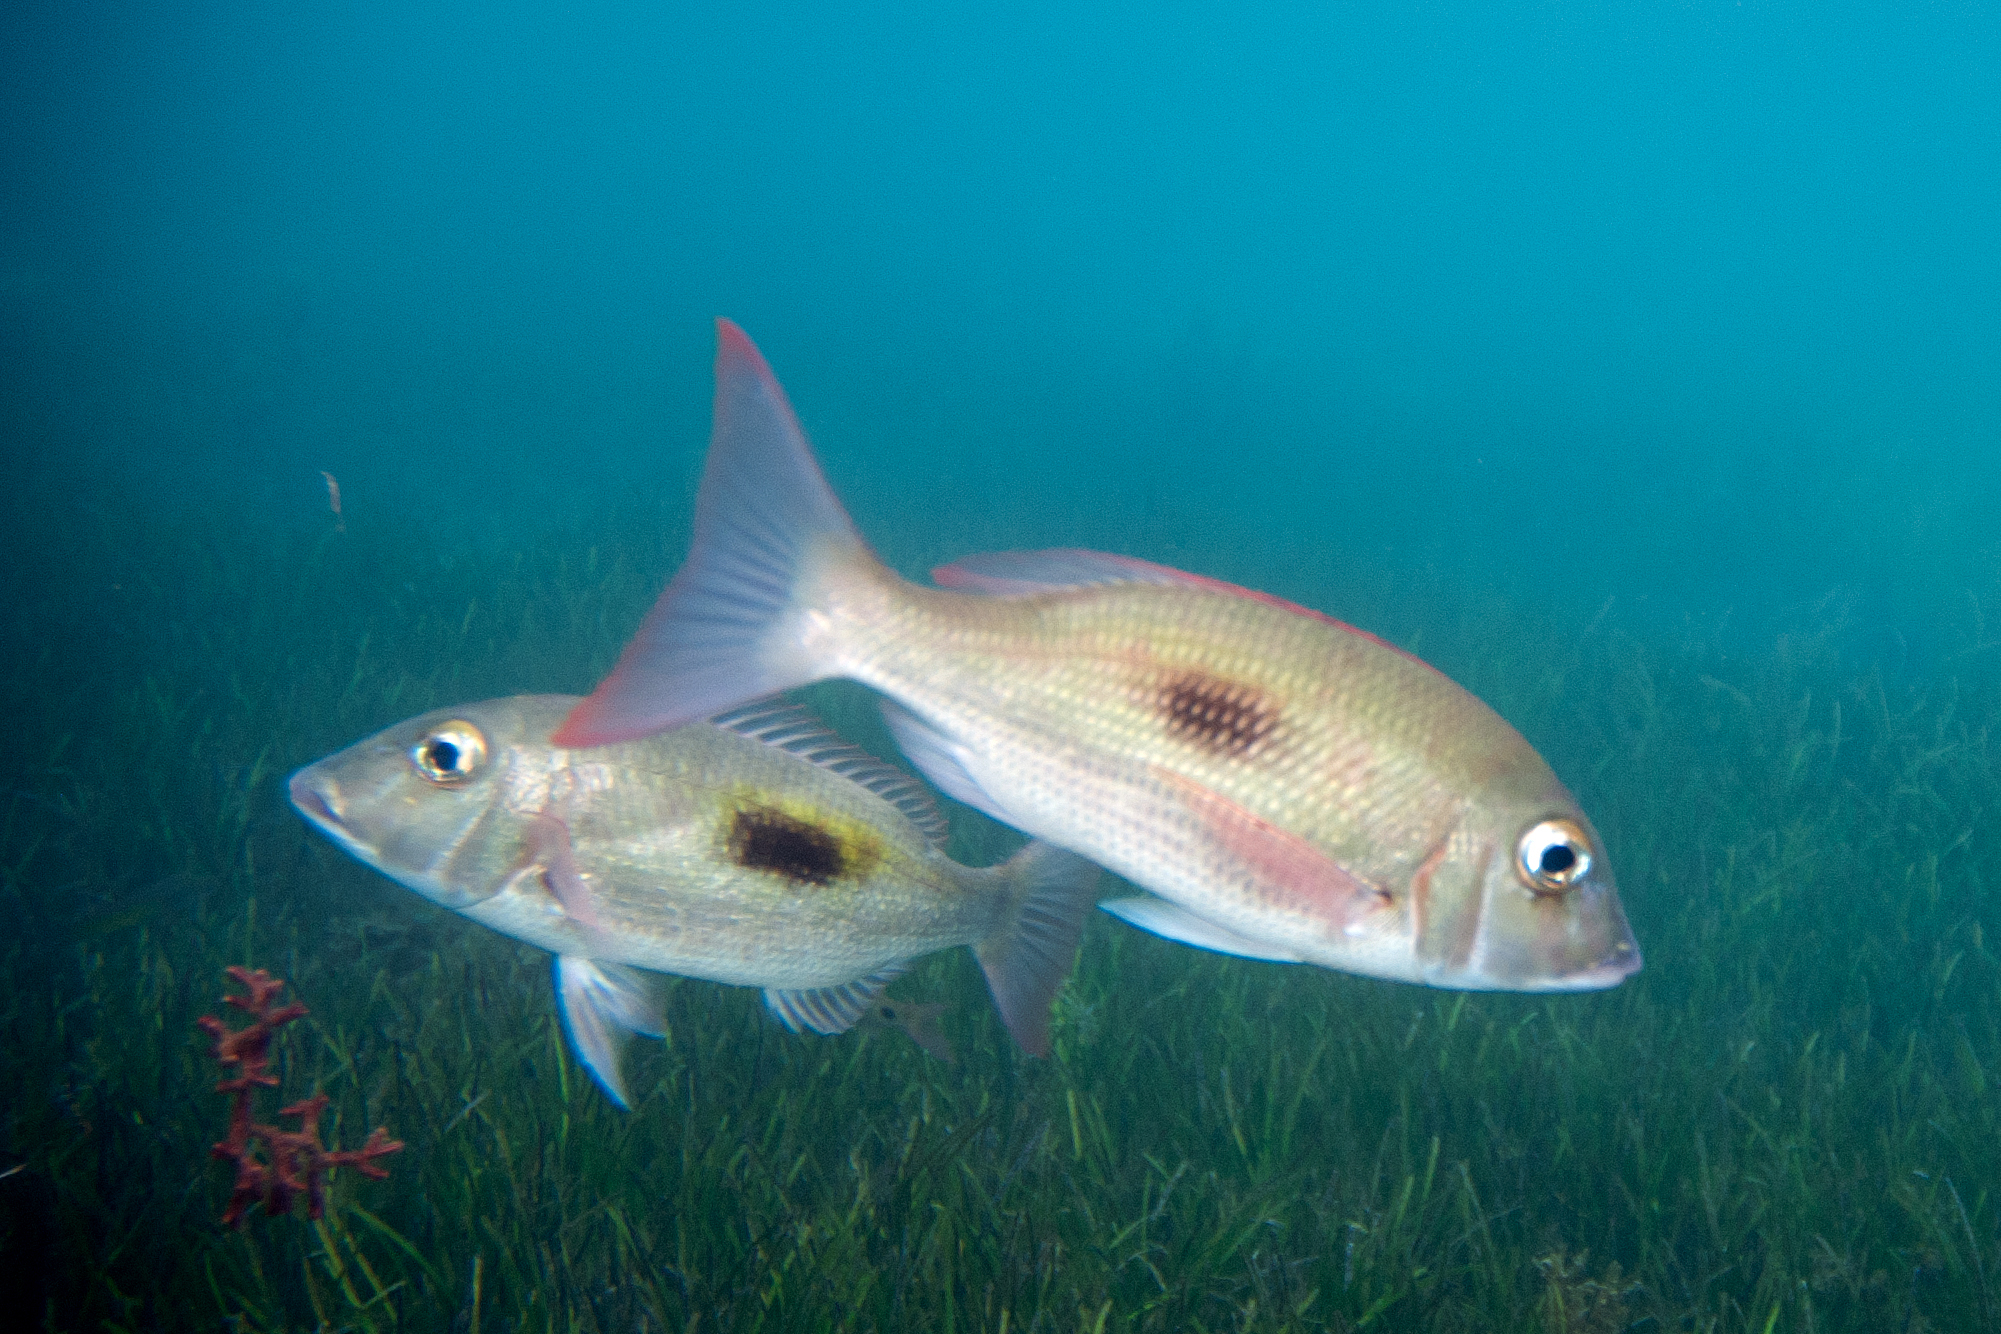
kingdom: Animalia
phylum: Chordata
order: Perciformes
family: Lethrinidae
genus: Lethrinus
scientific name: Lethrinus harak
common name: Blackspot emperor
